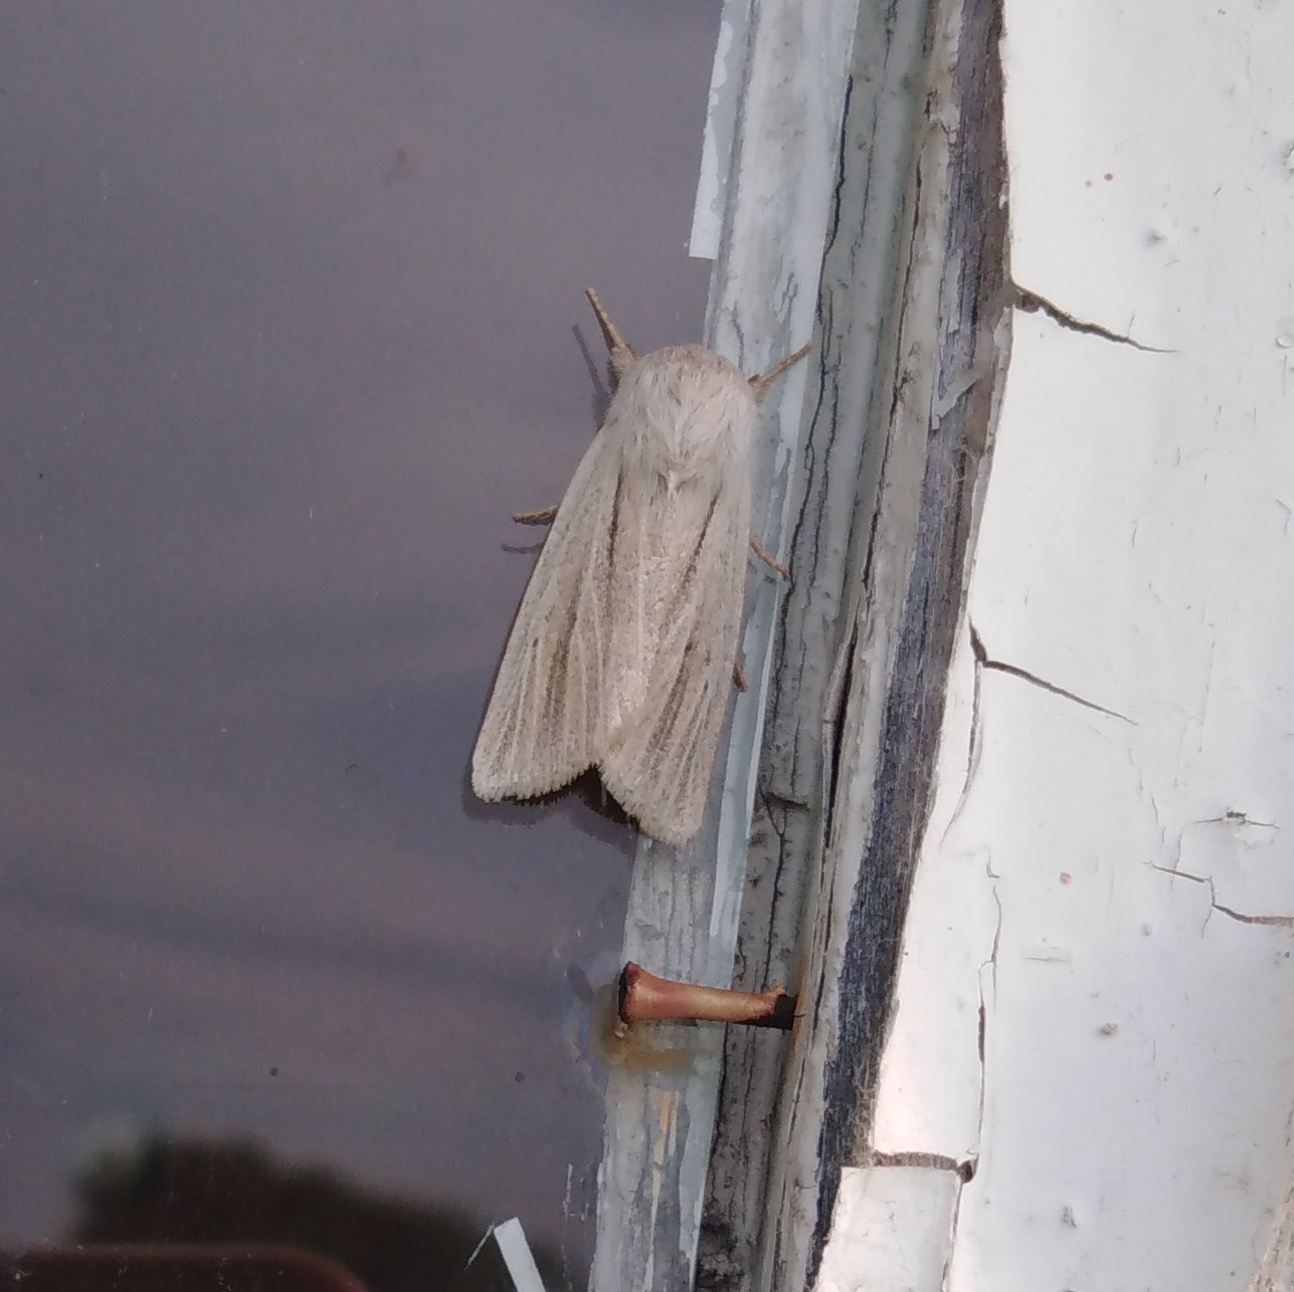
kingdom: Animalia
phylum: Arthropoda
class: Insecta
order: Lepidoptera
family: Noctuidae
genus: Simyra
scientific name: Simyra albovenosa
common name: Reed dagger
